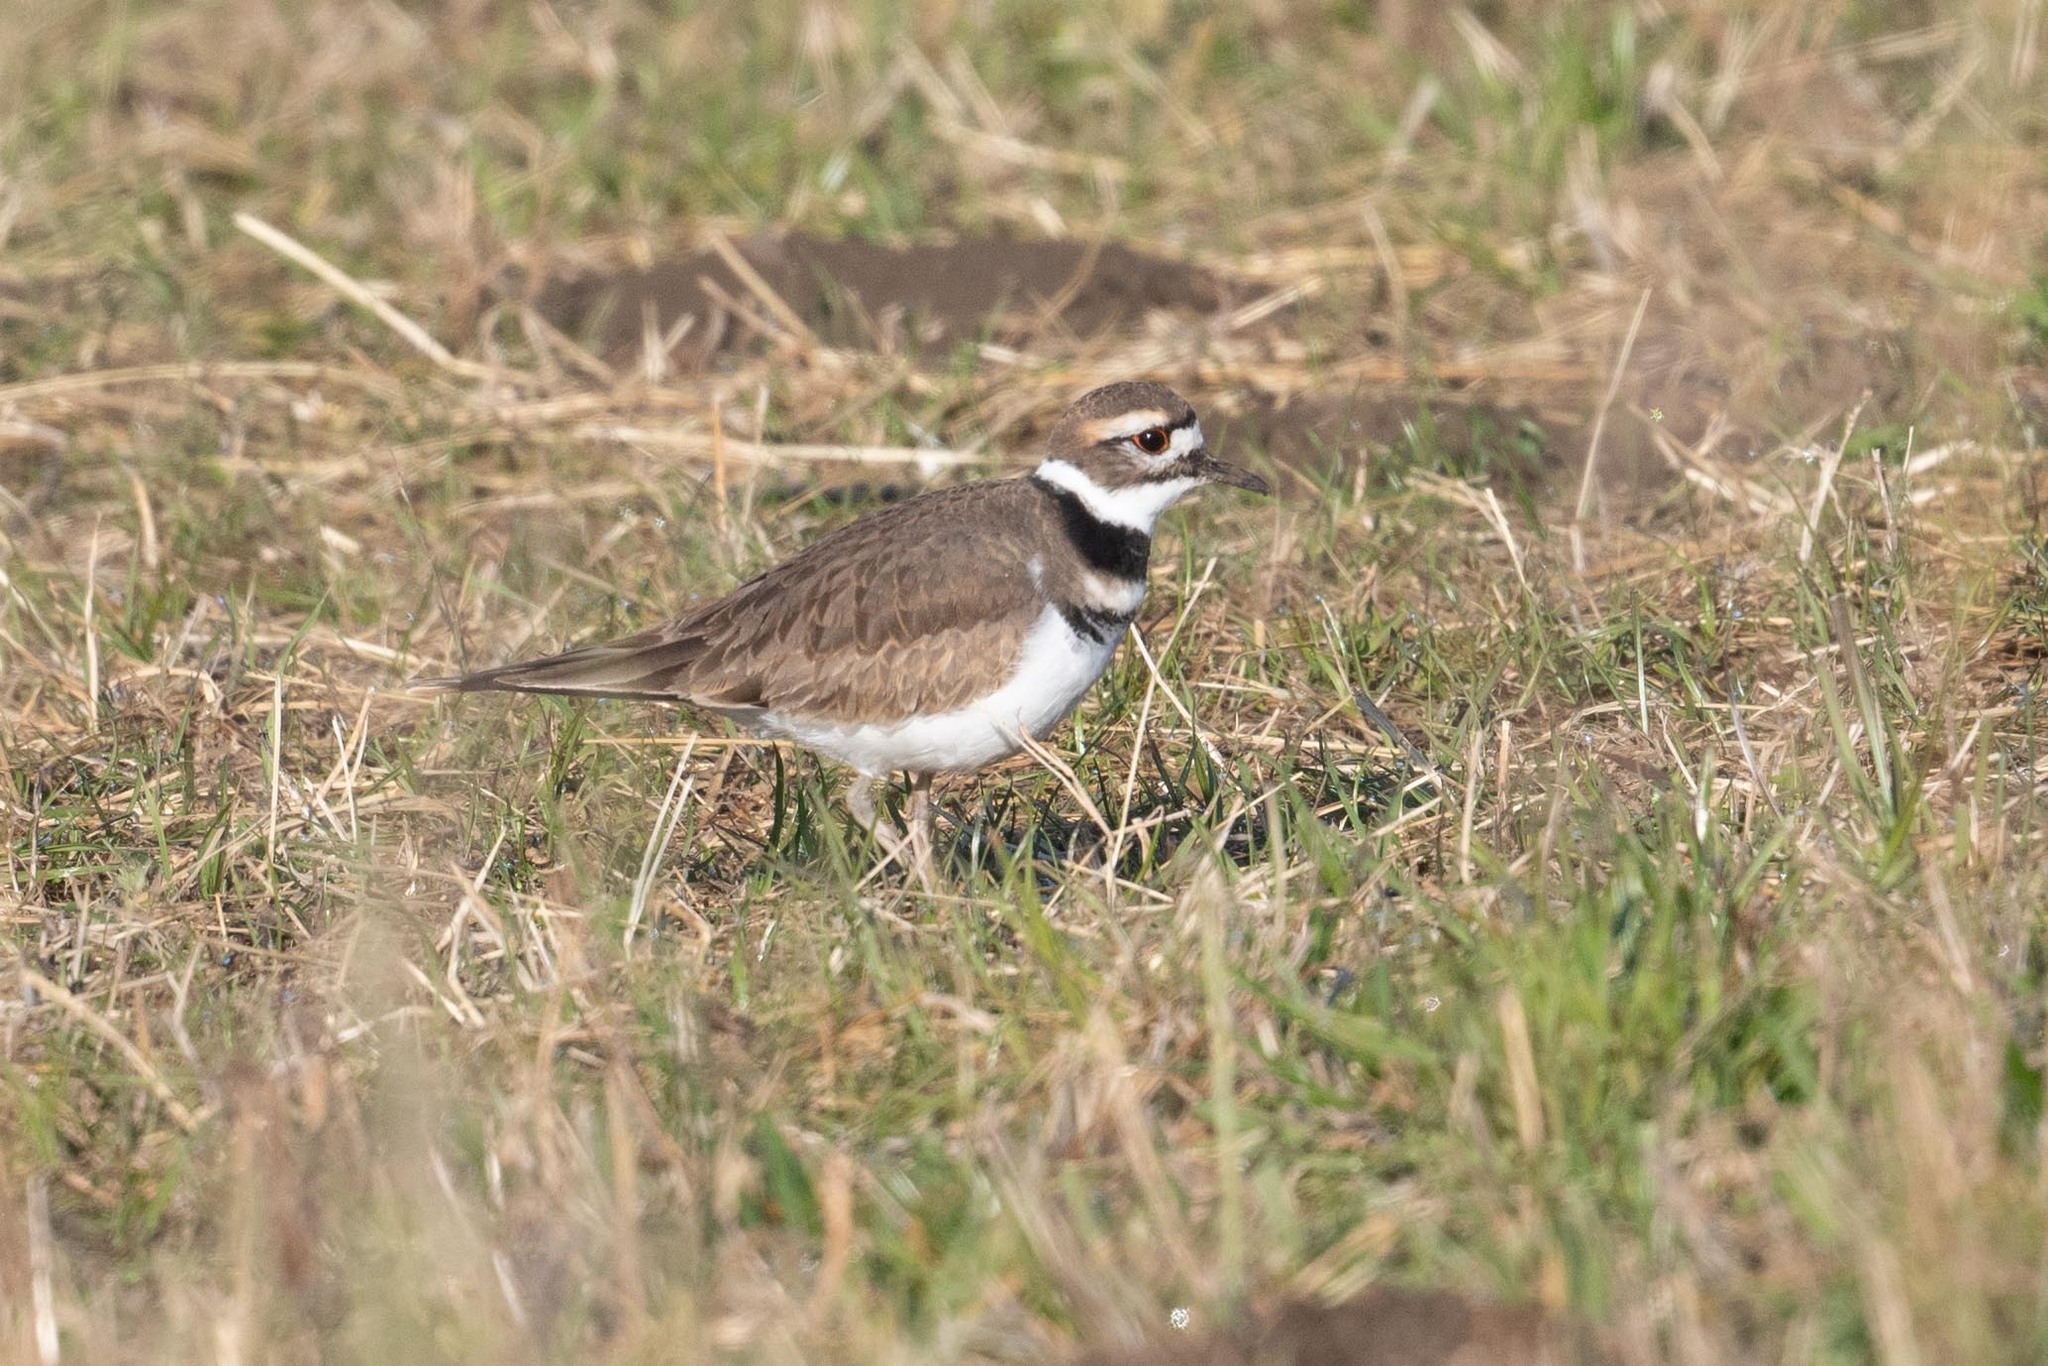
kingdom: Animalia
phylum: Chordata
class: Aves
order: Charadriiformes
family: Charadriidae
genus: Charadrius
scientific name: Charadrius vociferus
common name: Killdeer
